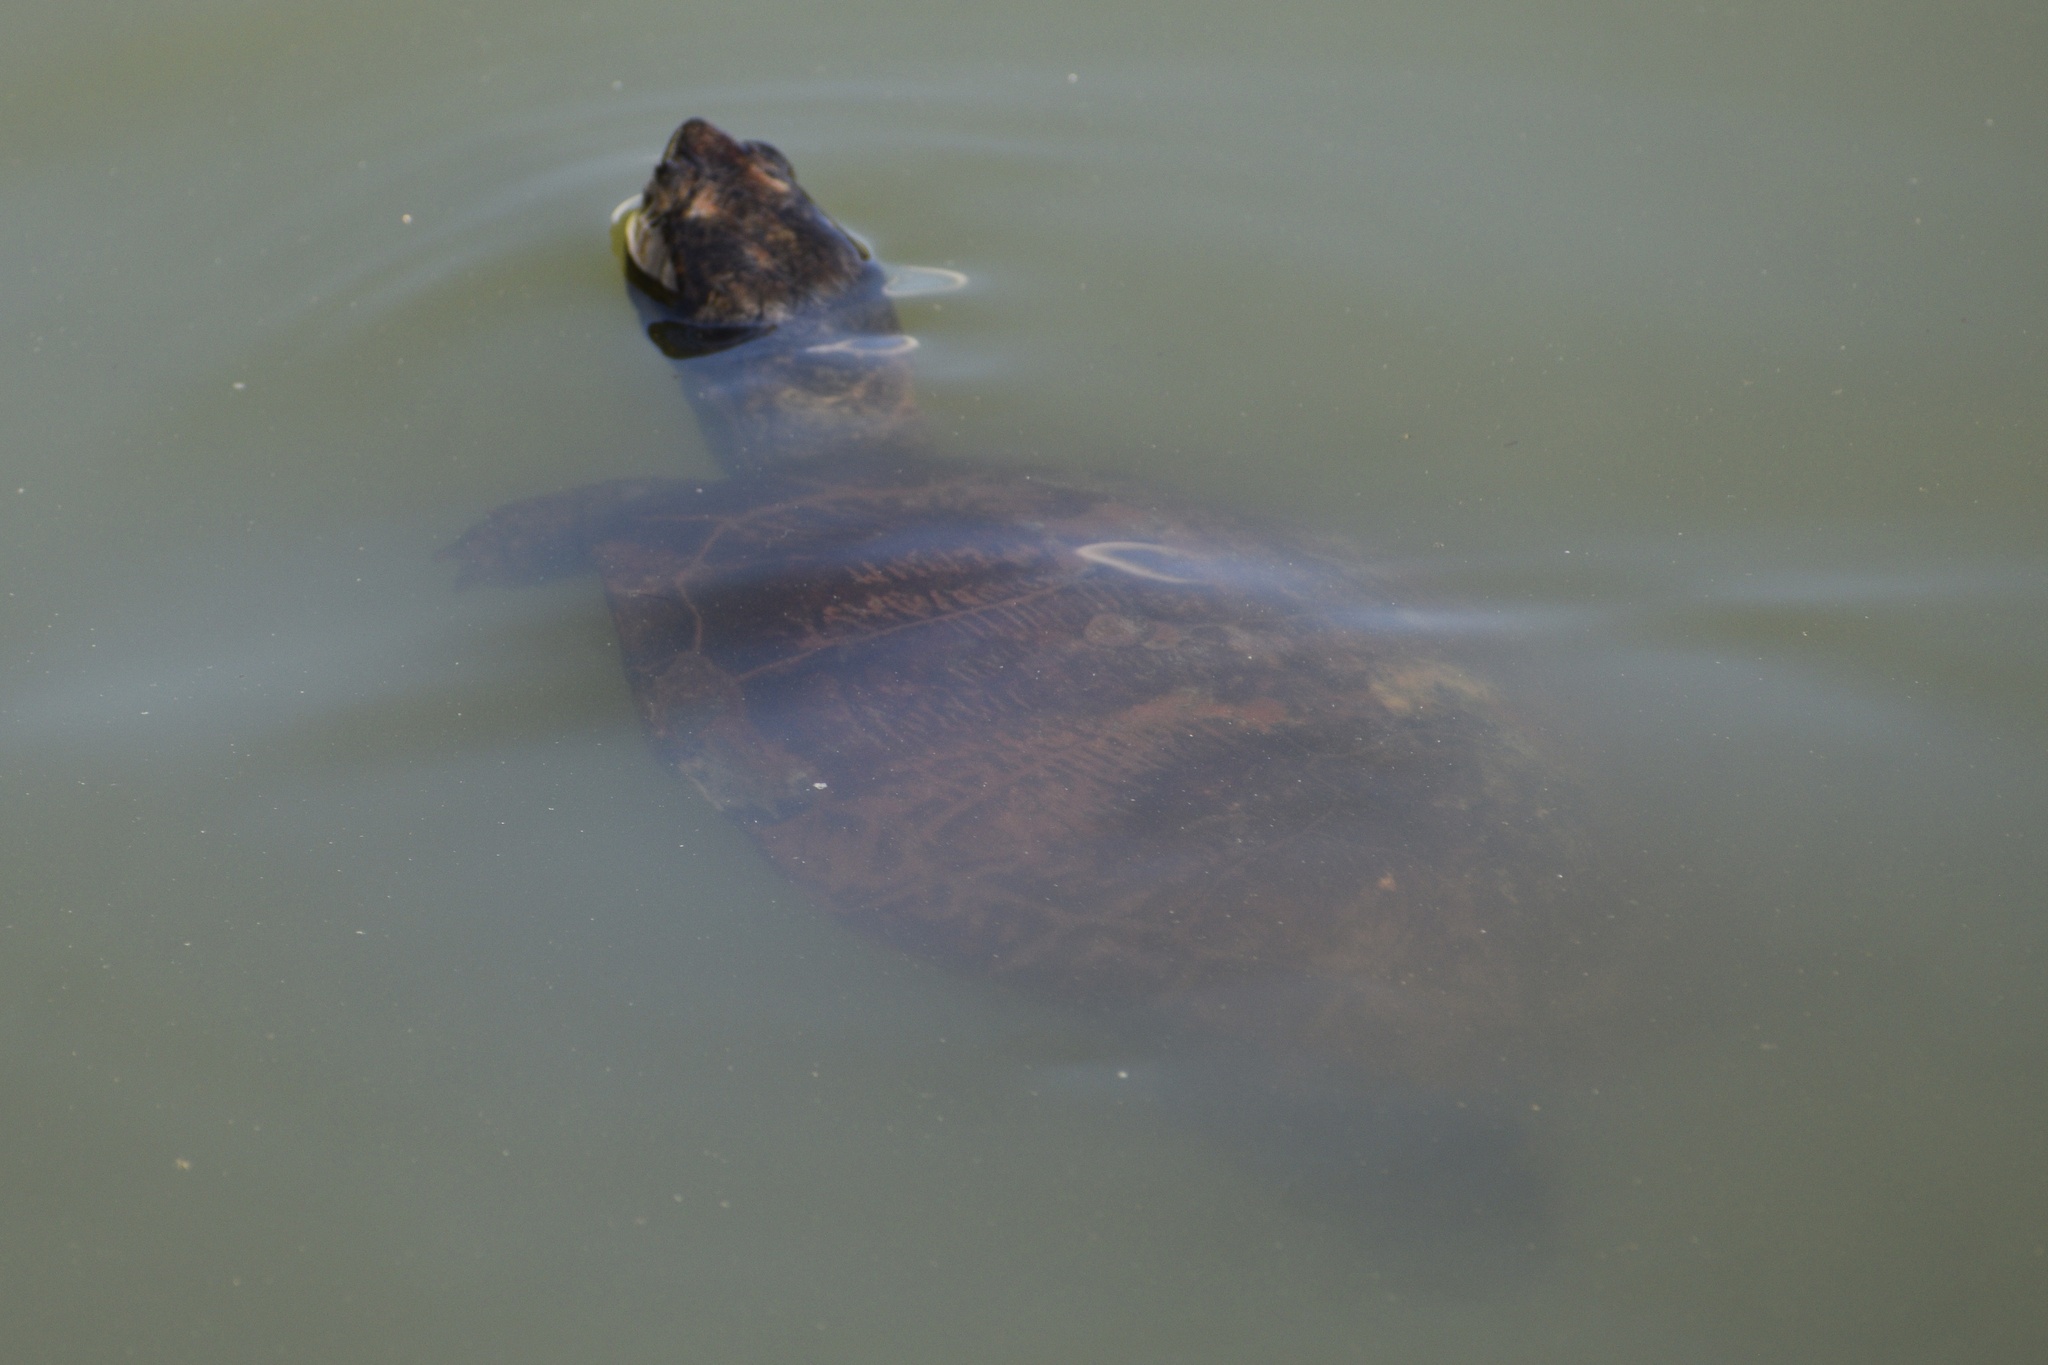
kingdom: Animalia
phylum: Chordata
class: Testudines
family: Emydidae
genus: Trachemys
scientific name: Trachemys scripta
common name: Slider
